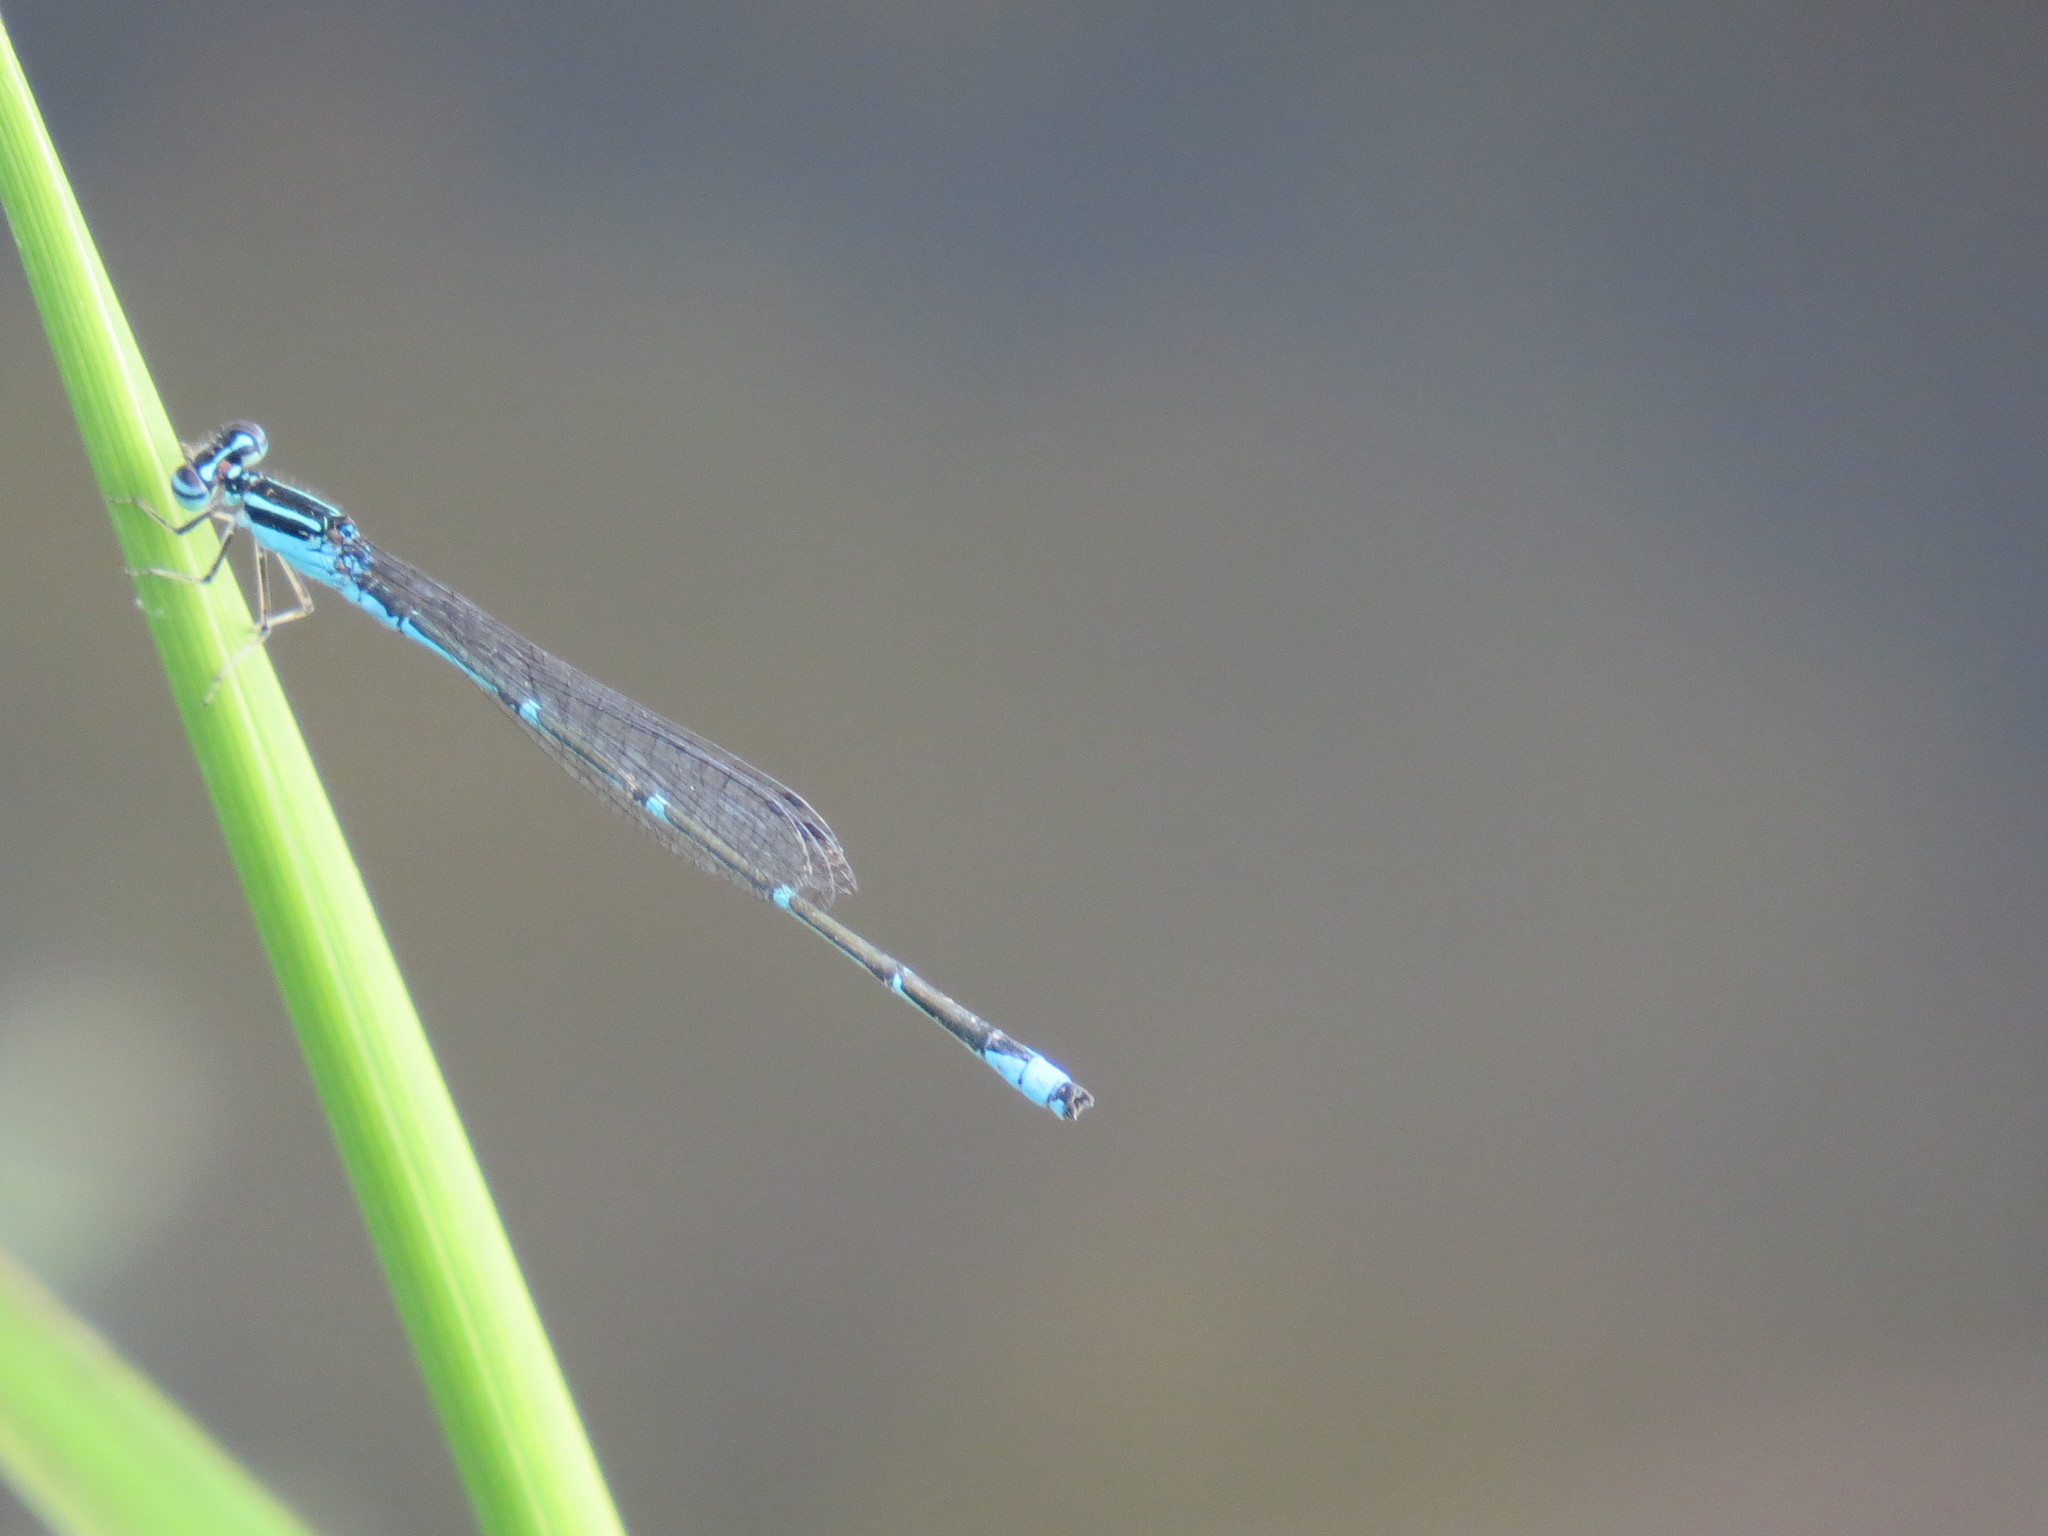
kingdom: Animalia
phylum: Arthropoda
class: Insecta
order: Odonata
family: Coenagrionidae
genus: Enallagma
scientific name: Enallagma exsulans
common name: Stream bluet
